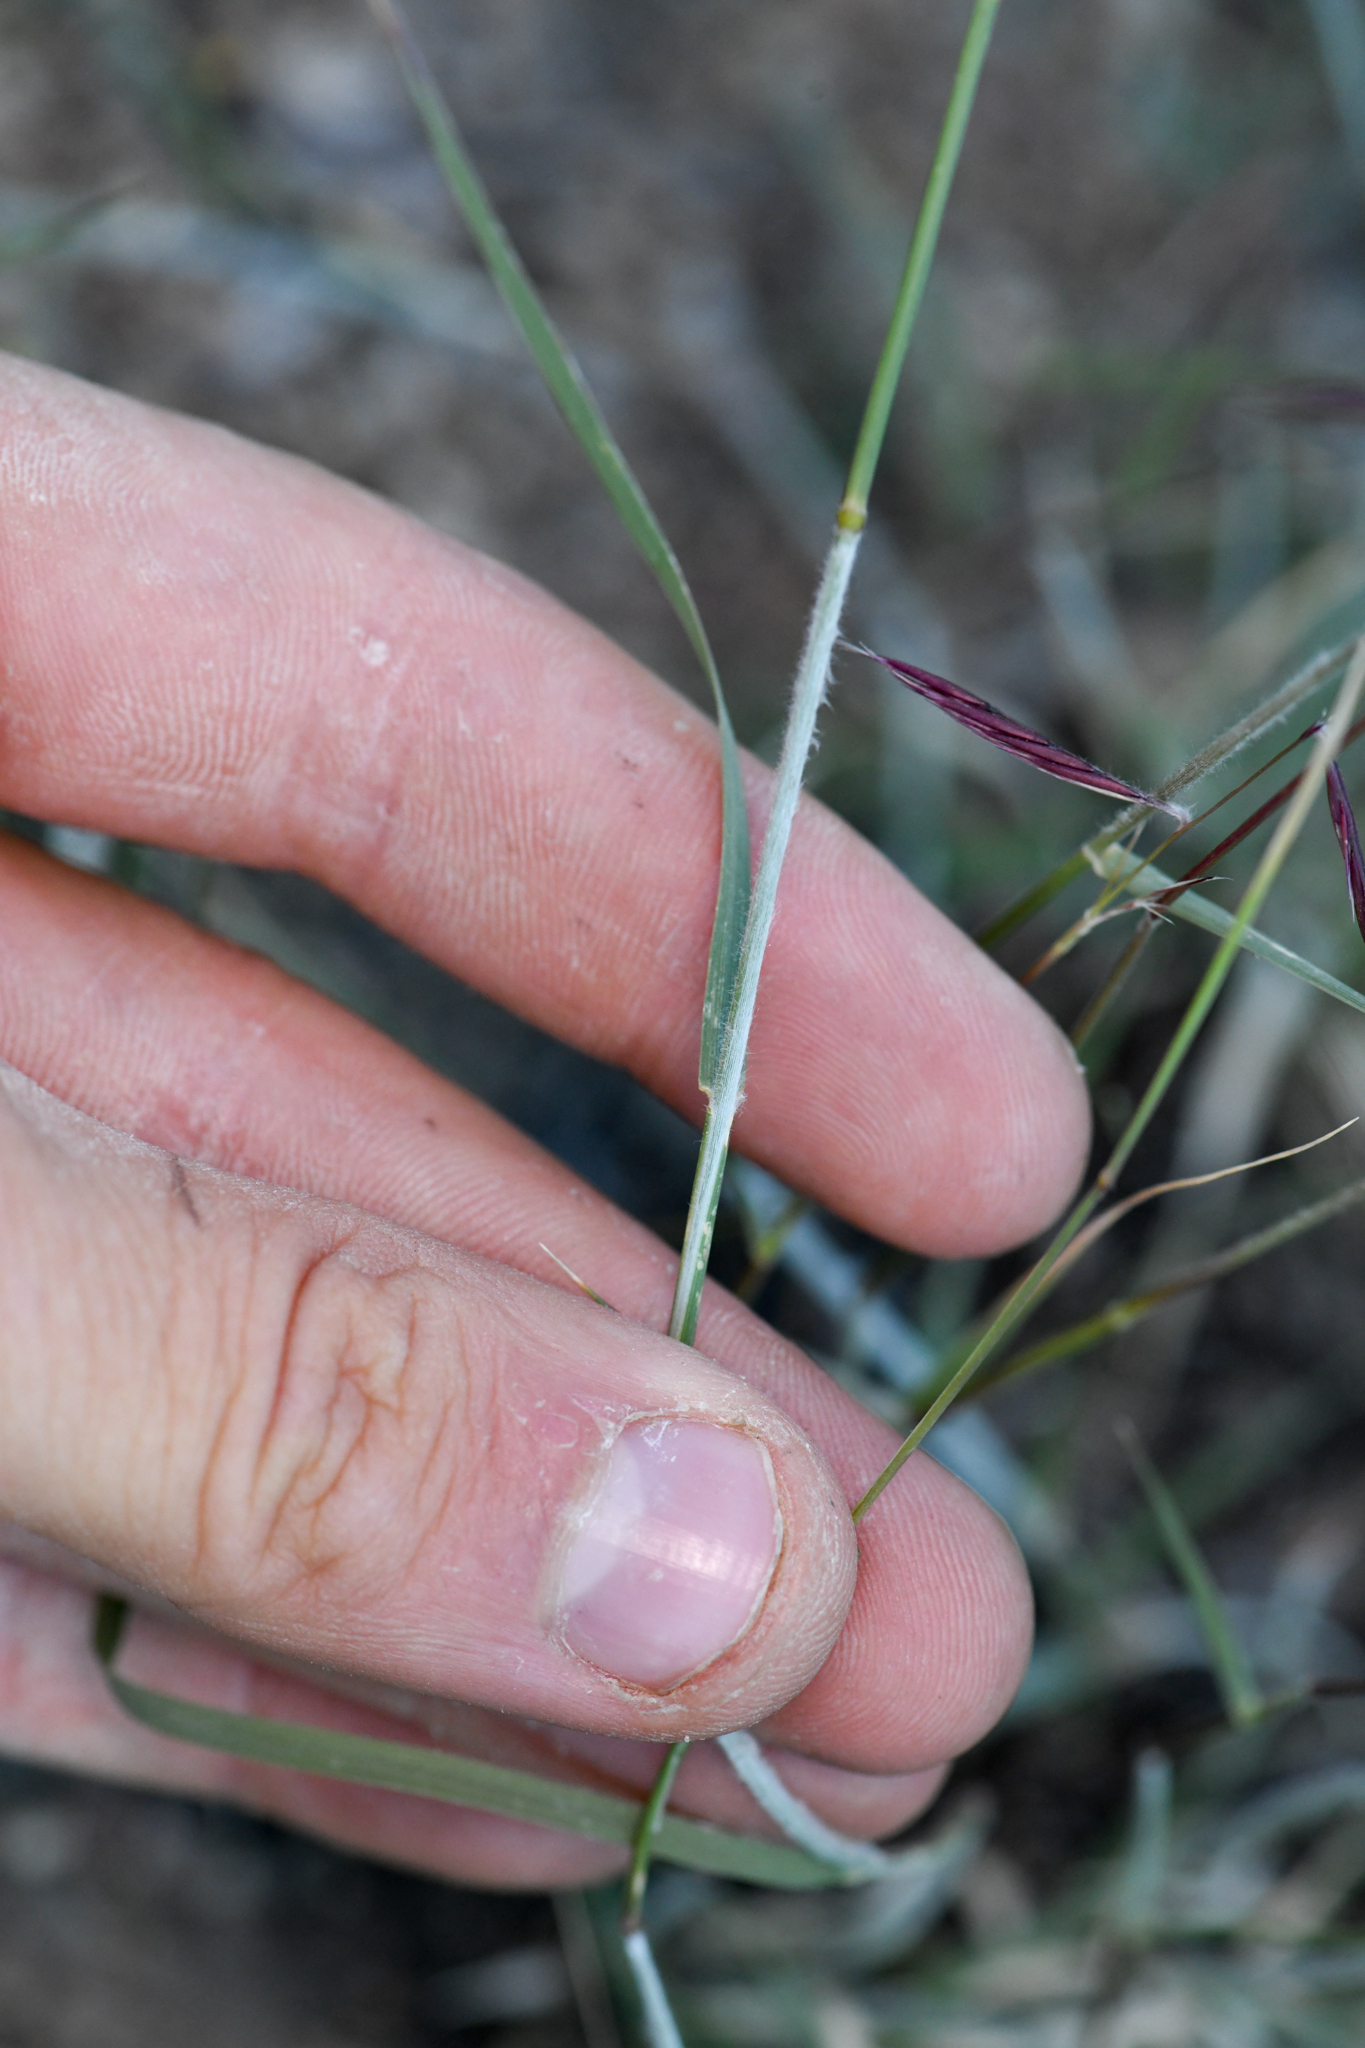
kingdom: Plantae
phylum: Tracheophyta
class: Liliopsida
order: Poales
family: Poaceae
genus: Bouteloua
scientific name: Bouteloua eriopoda
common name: Woolly foot grama
